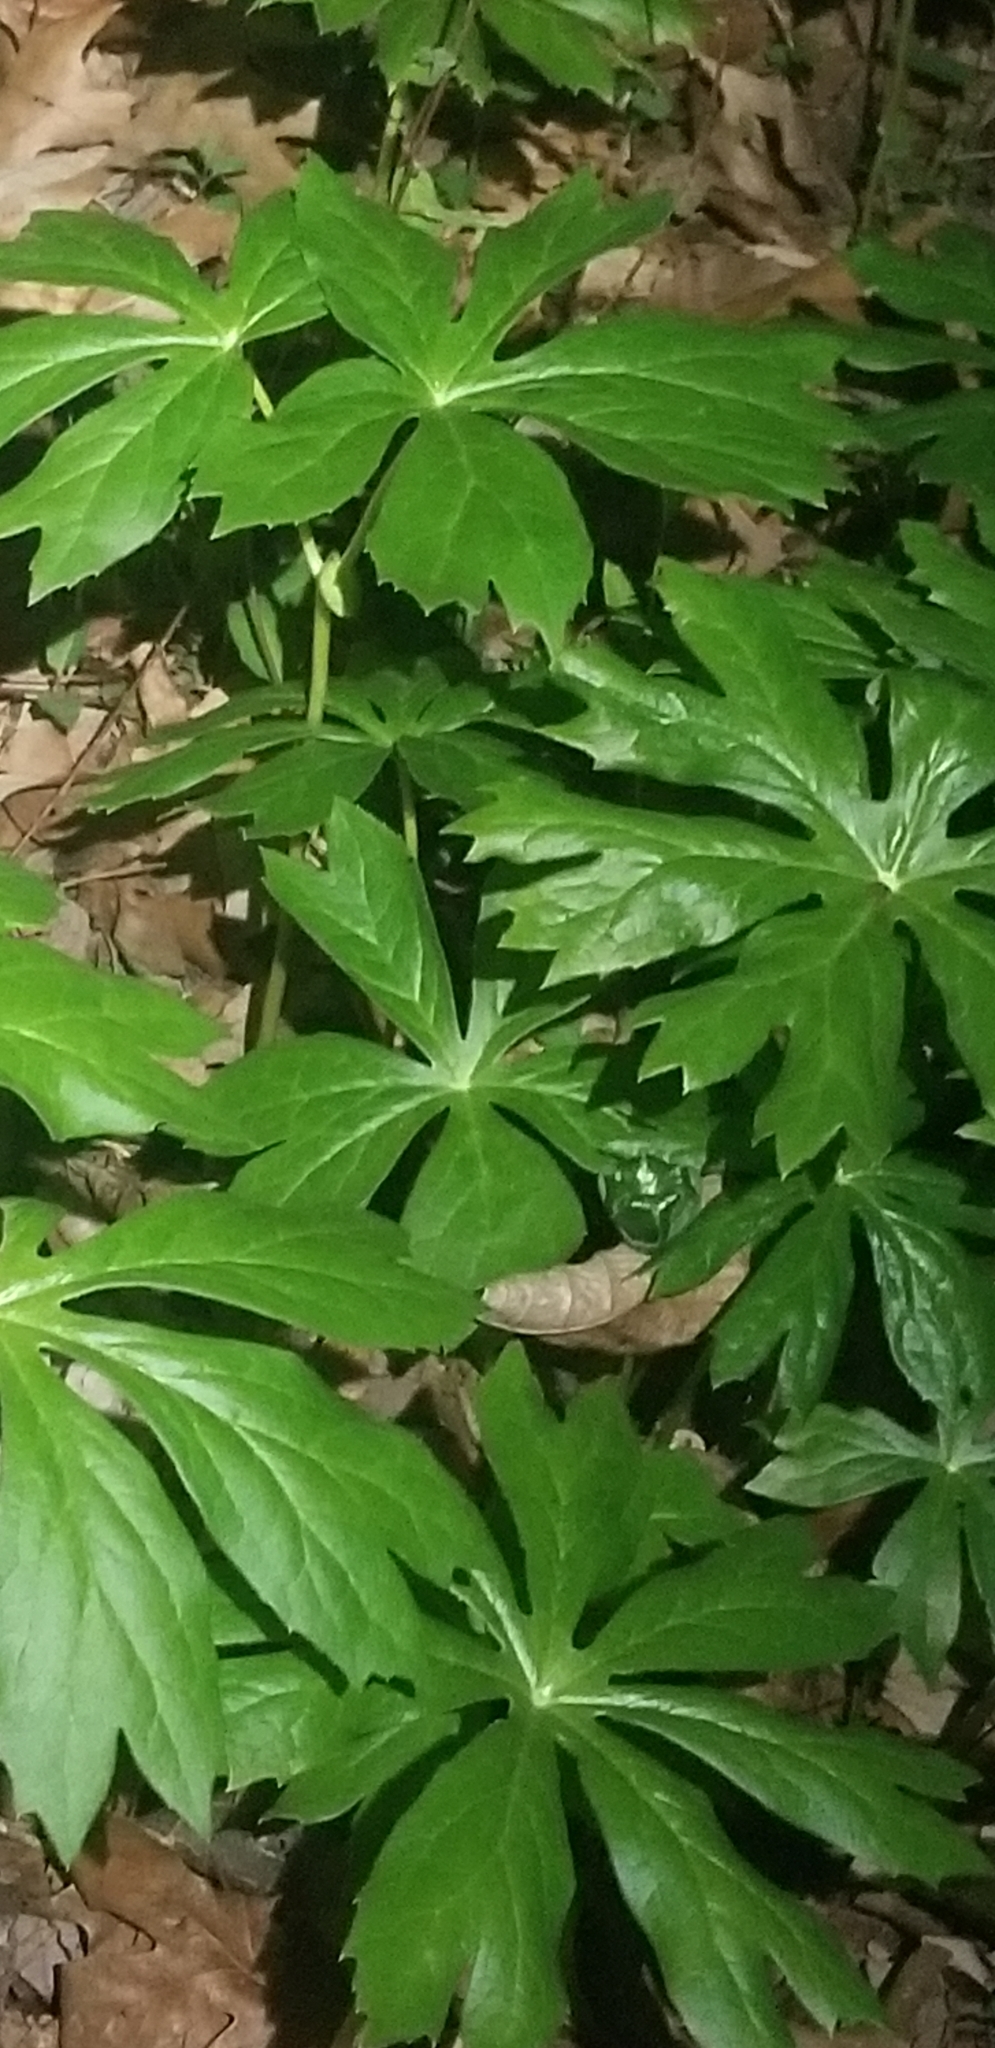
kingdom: Plantae
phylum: Tracheophyta
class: Magnoliopsida
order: Ranunculales
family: Berberidaceae
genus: Podophyllum
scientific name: Podophyllum peltatum
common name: Wild mandrake
